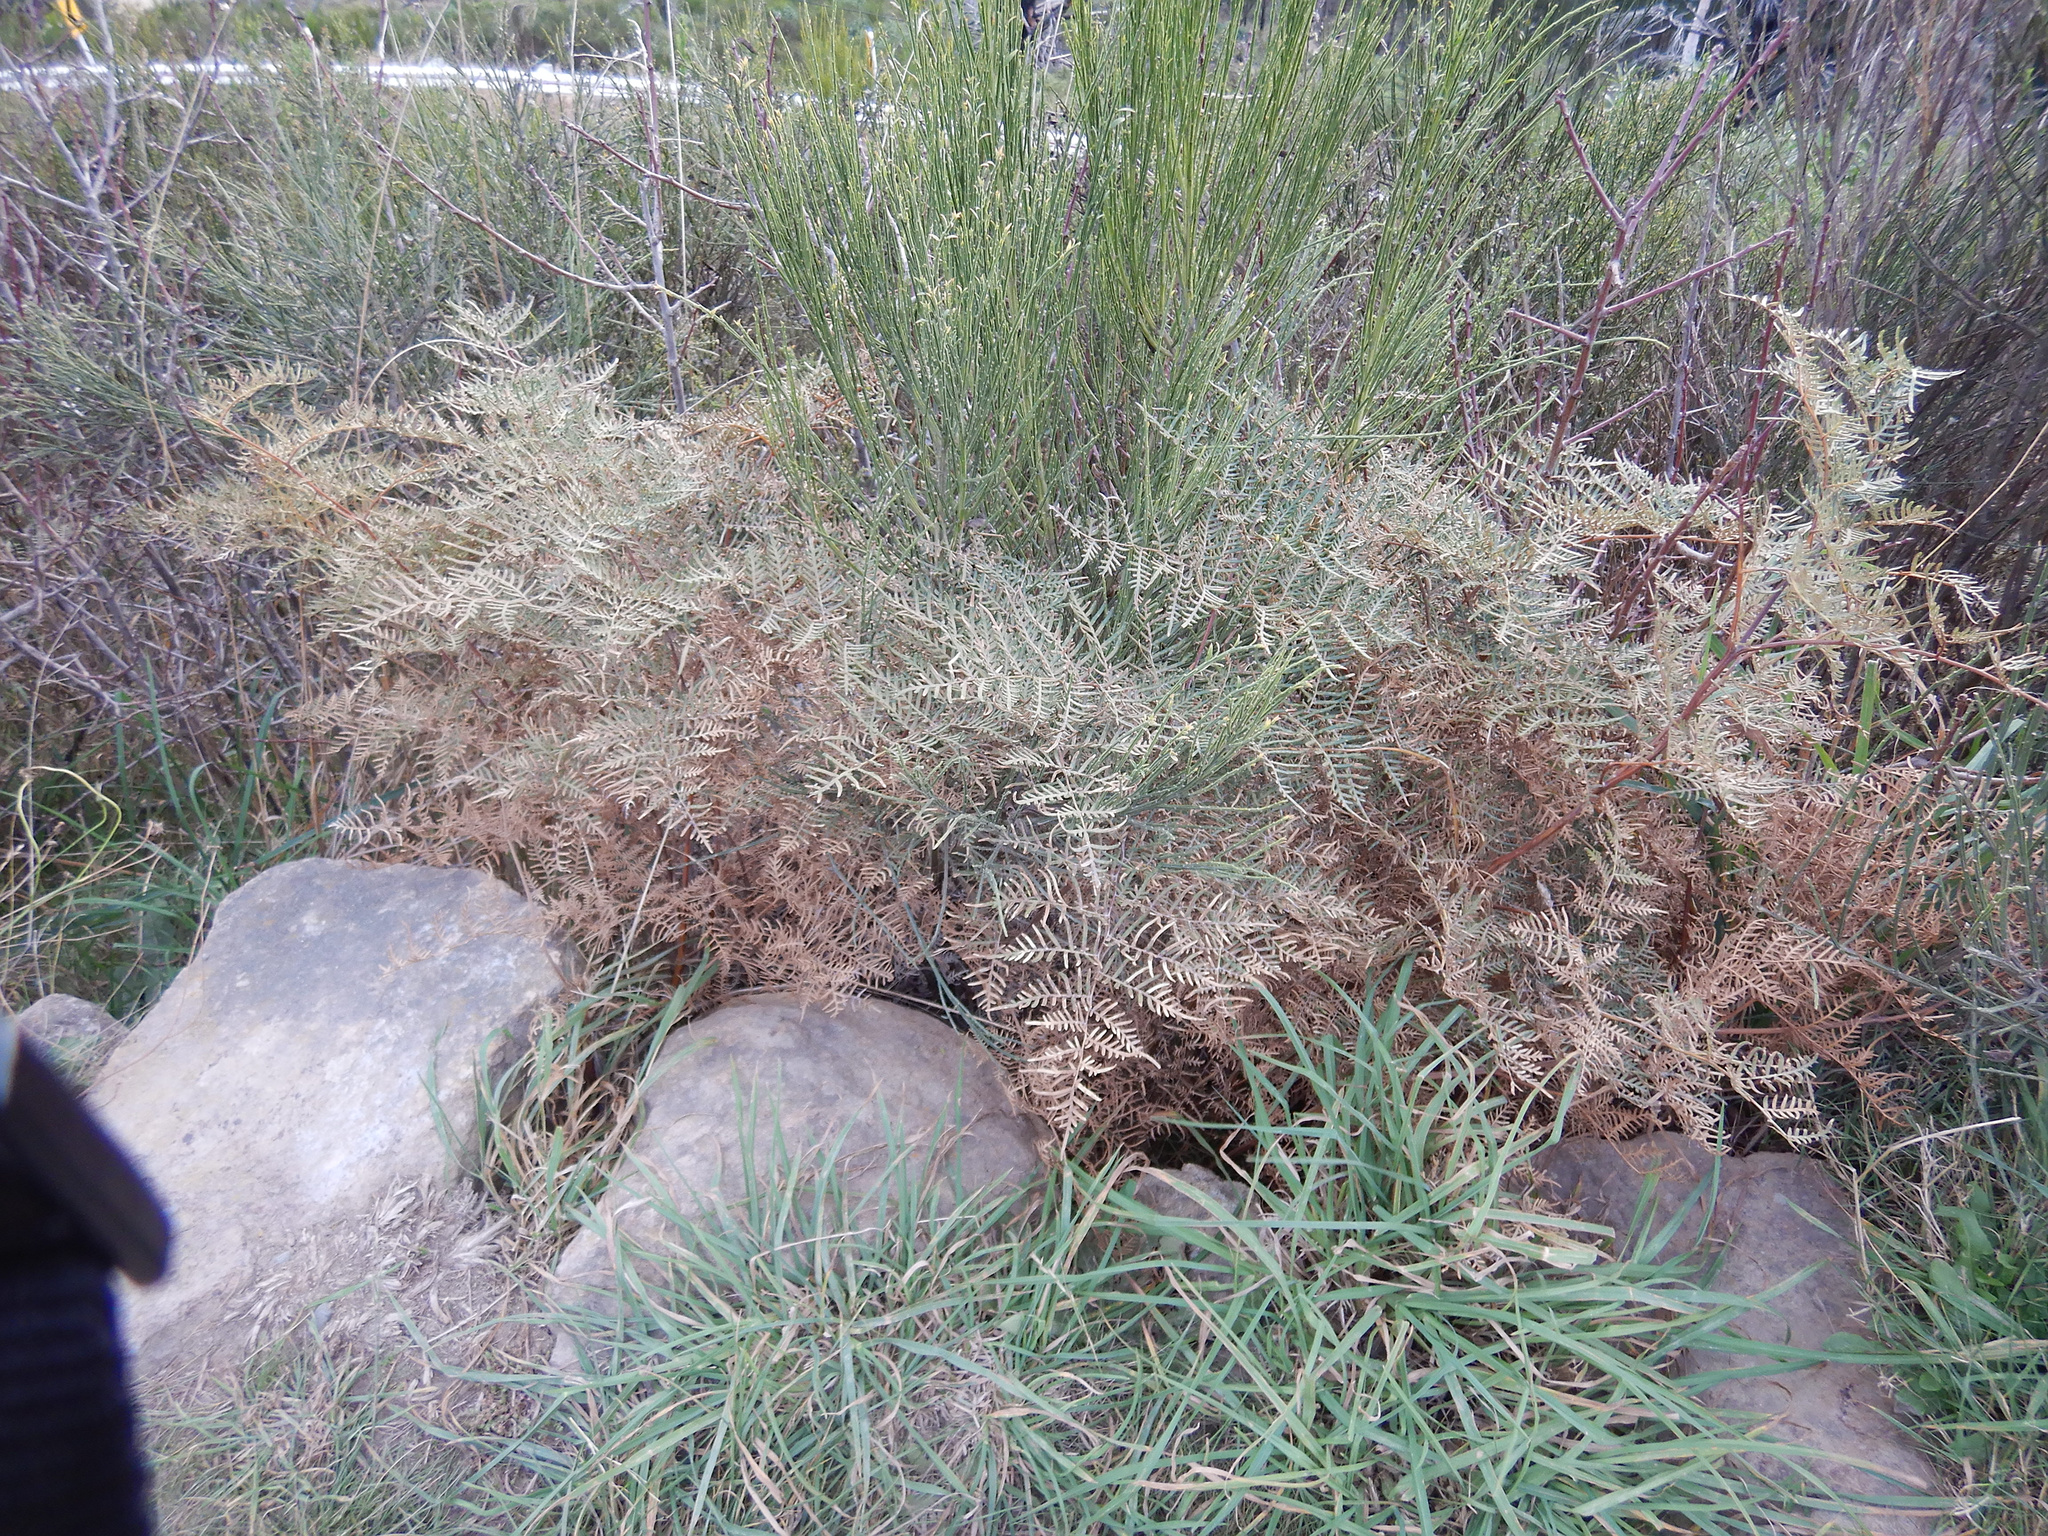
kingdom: Plantae
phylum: Tracheophyta
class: Polypodiopsida
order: Polypodiales
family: Dennstaedtiaceae
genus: Pteridium
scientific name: Pteridium esculentum
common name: Bracken fern
